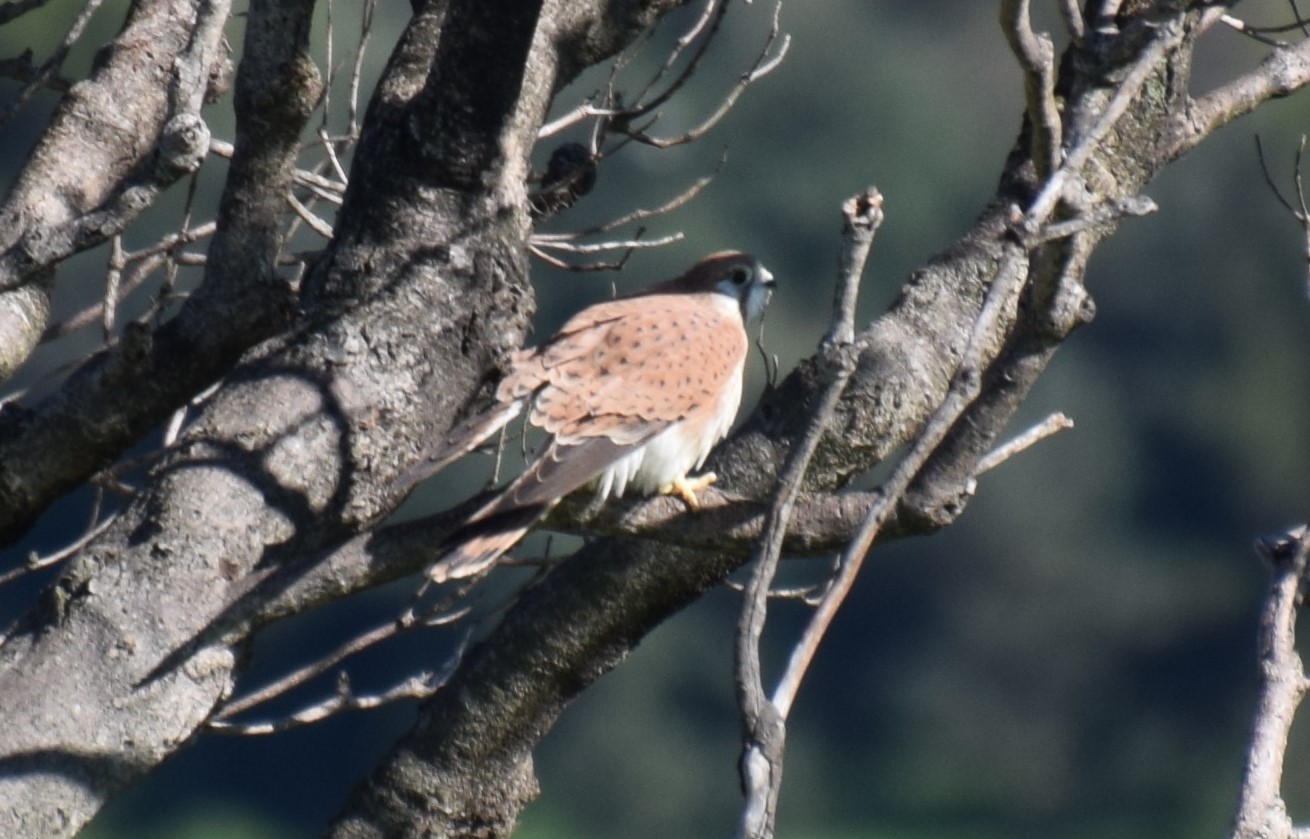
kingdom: Animalia
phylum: Chordata
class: Aves
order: Falconiformes
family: Falconidae
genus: Falco
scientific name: Falco cenchroides
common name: Nankeen kestrel
